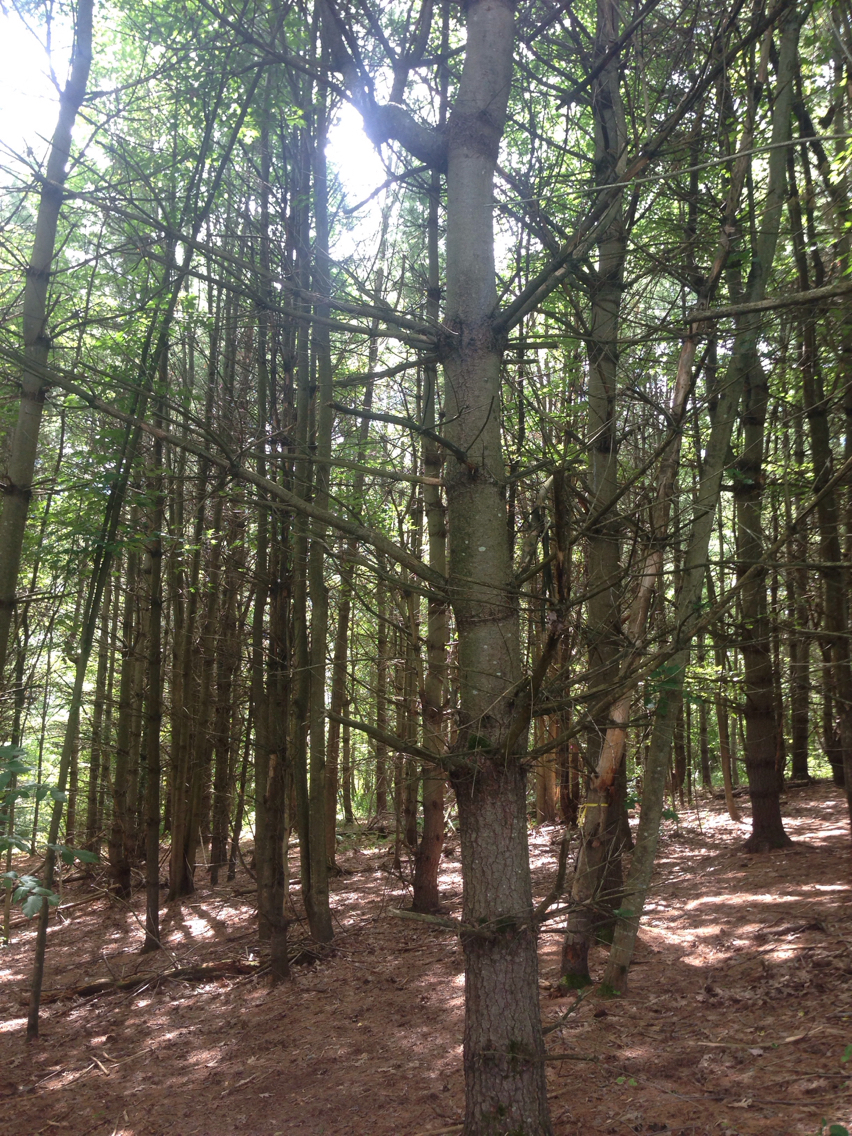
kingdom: Plantae
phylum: Tracheophyta
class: Pinopsida
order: Pinales
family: Pinaceae
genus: Pinus
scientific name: Pinus strobus
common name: Weymouth pine
